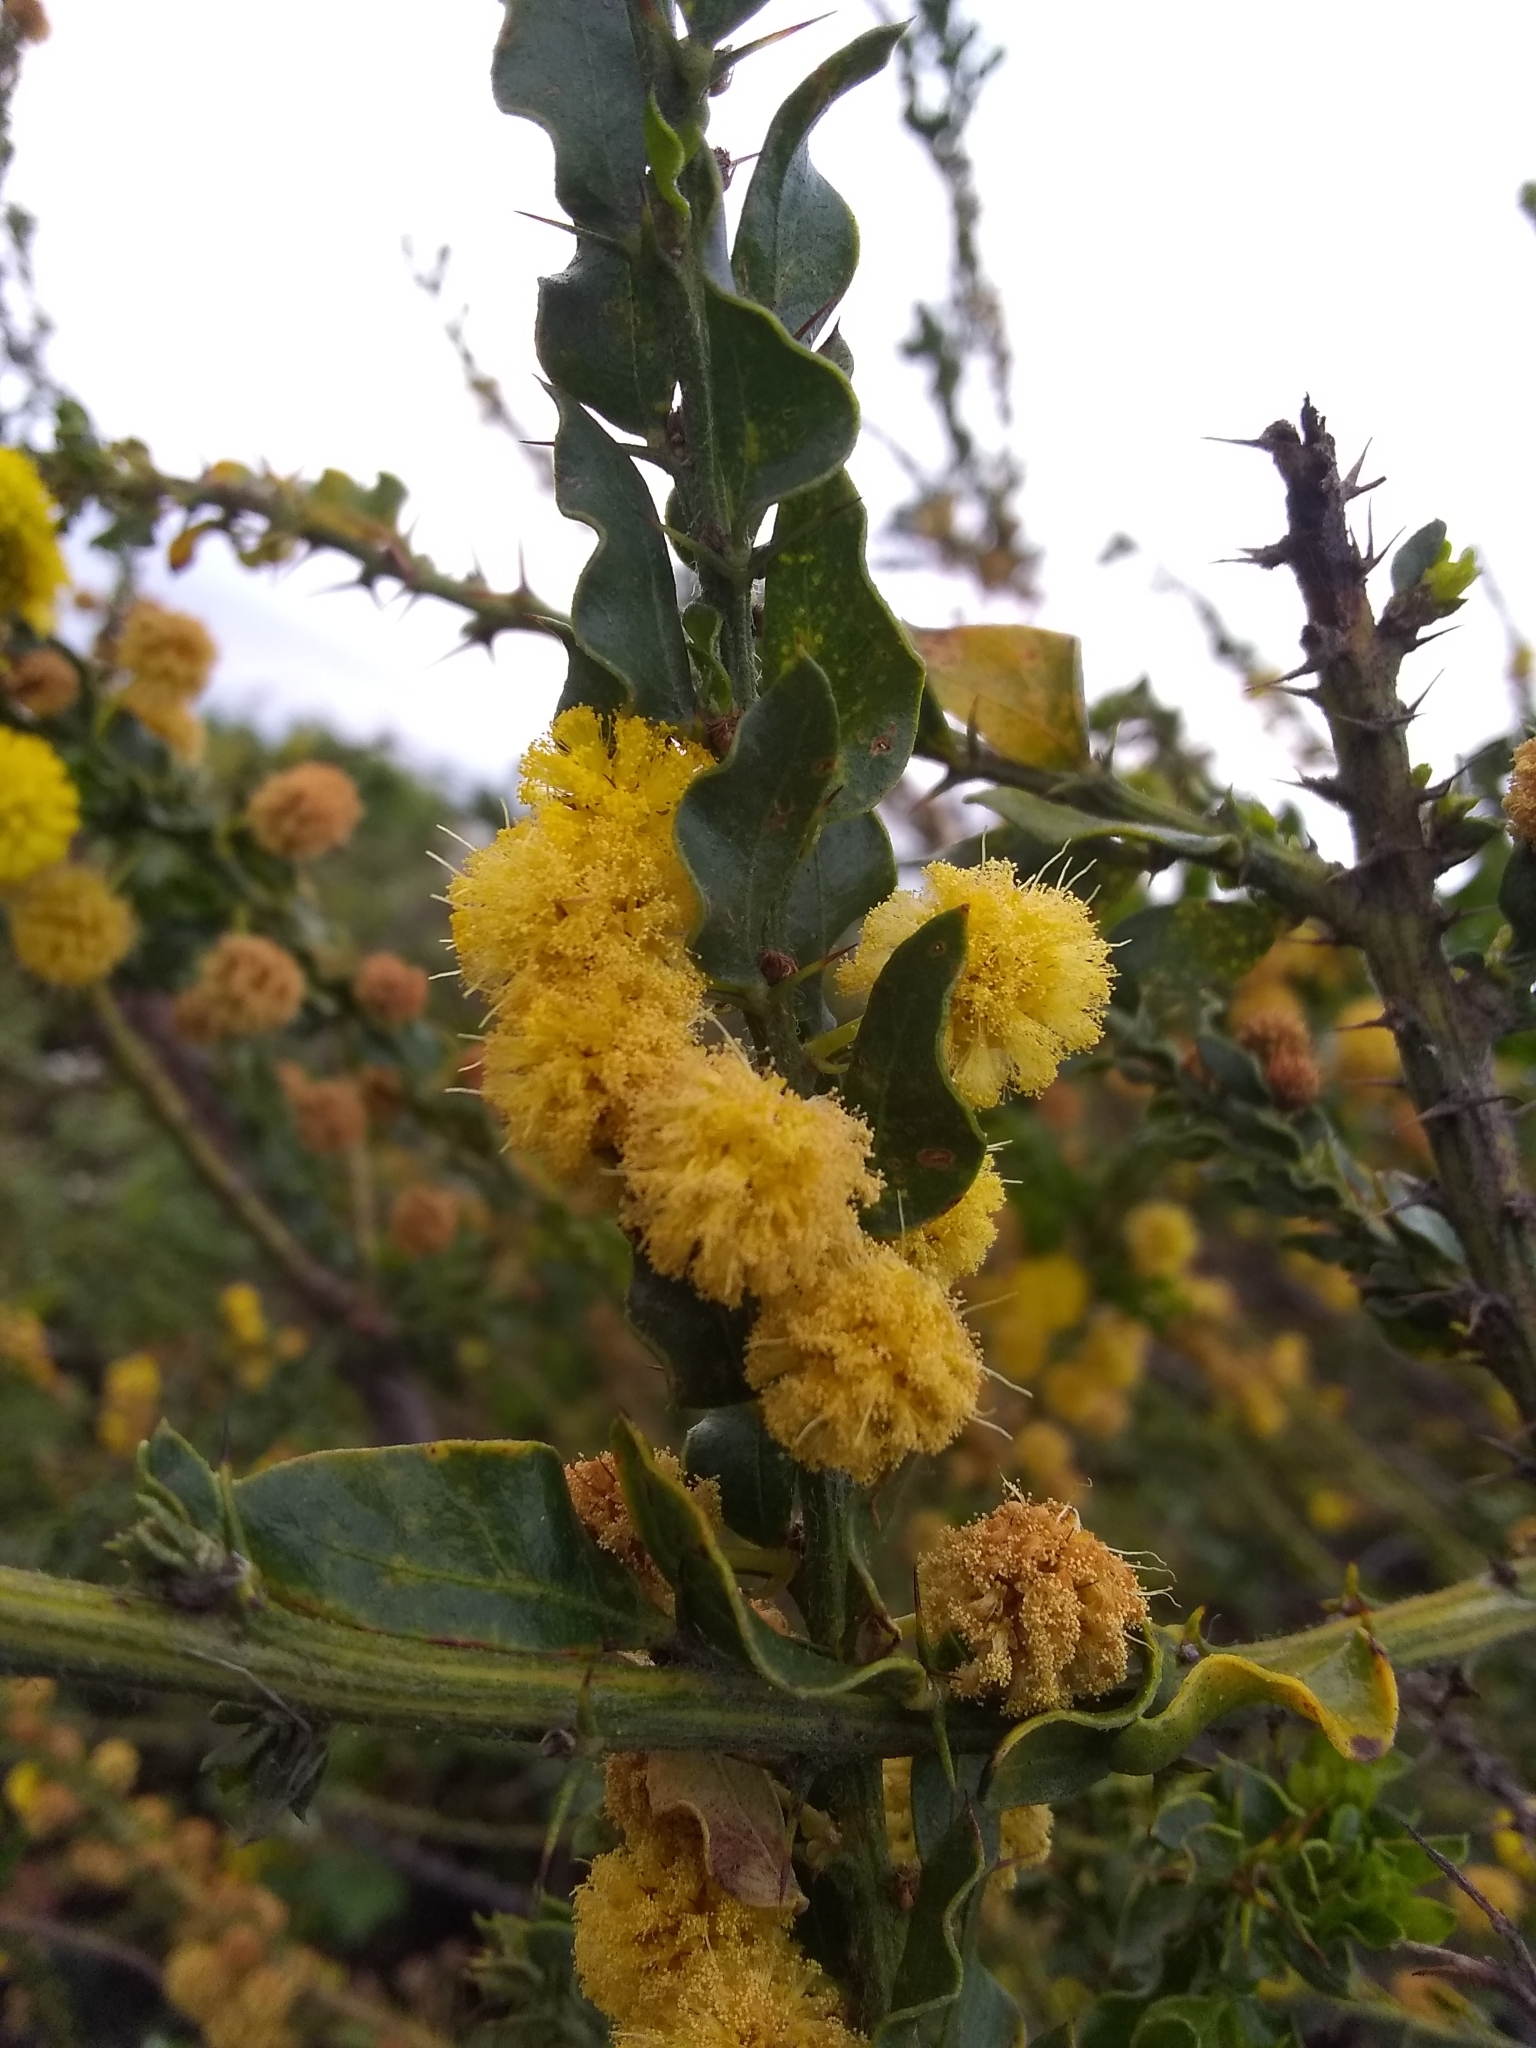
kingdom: Plantae
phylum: Tracheophyta
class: Magnoliopsida
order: Fabales
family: Fabaceae
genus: Acacia
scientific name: Acacia paradoxa
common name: Paradox acacia
